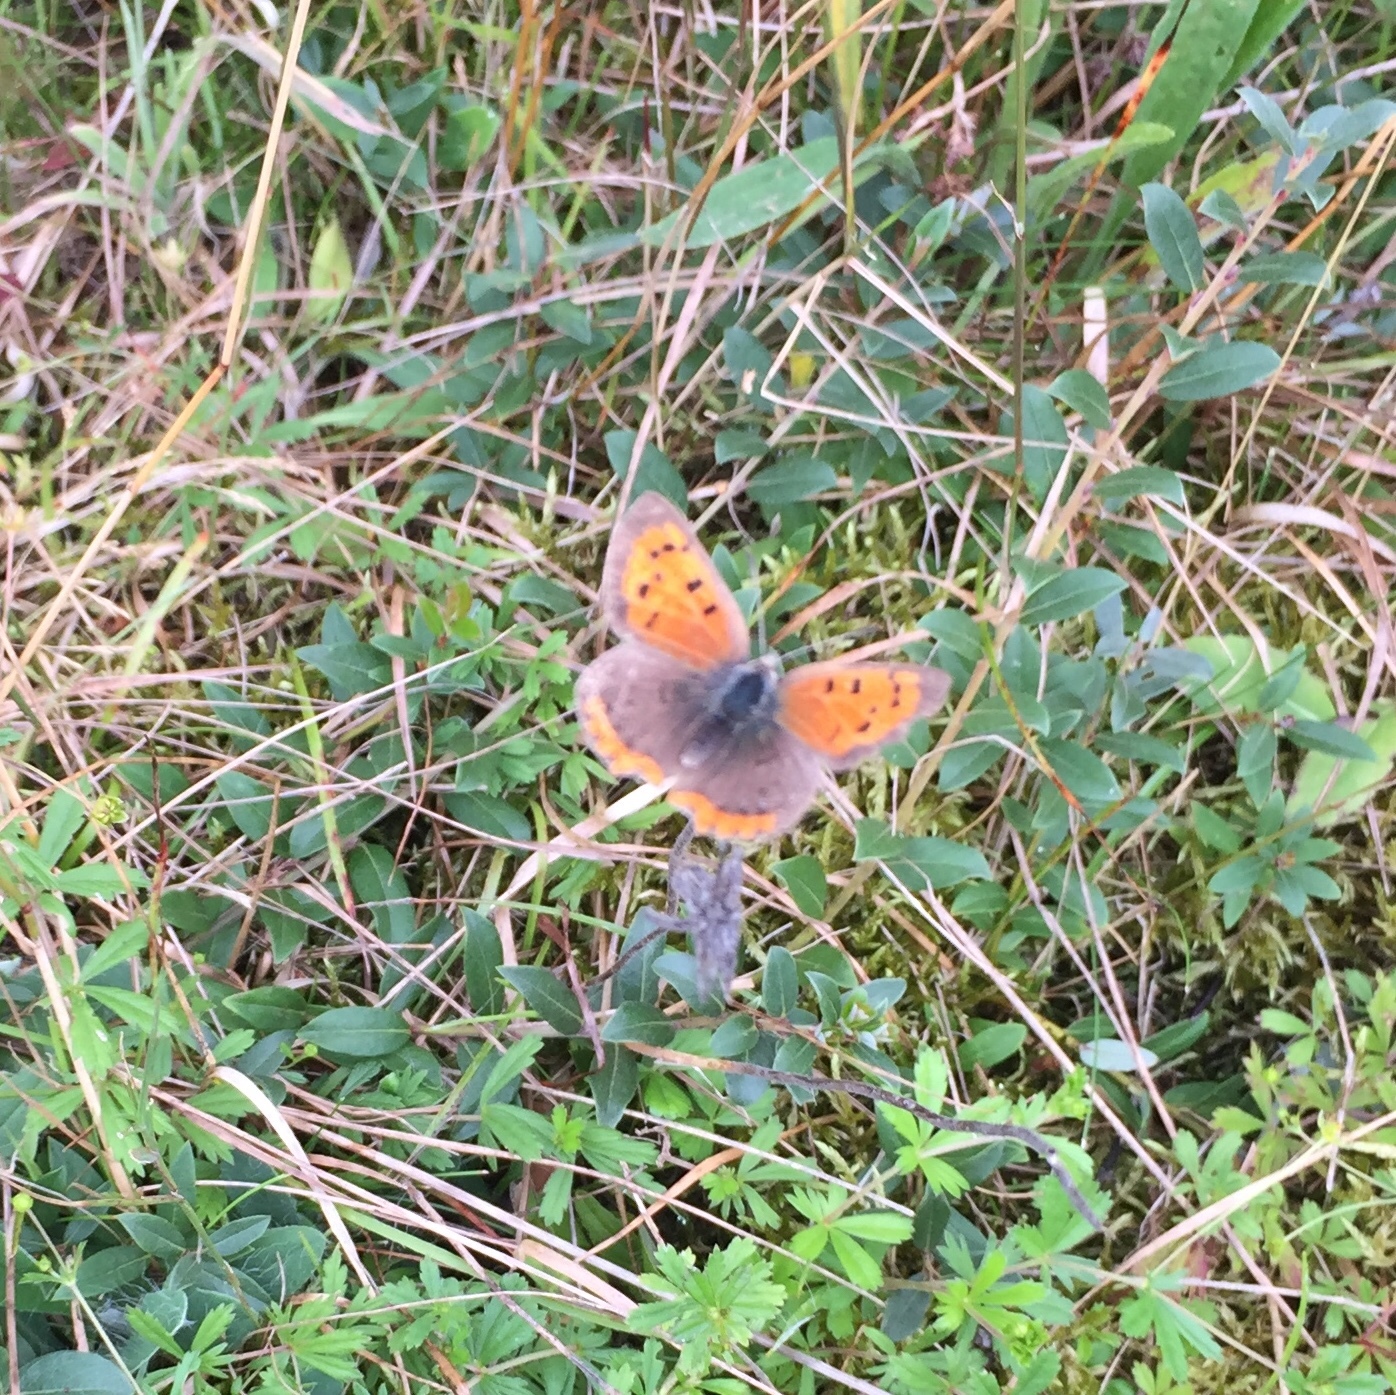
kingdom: Animalia
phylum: Arthropoda
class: Insecta
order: Lepidoptera
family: Lycaenidae
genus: Lycaena
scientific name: Lycaena phlaeas
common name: Small copper
